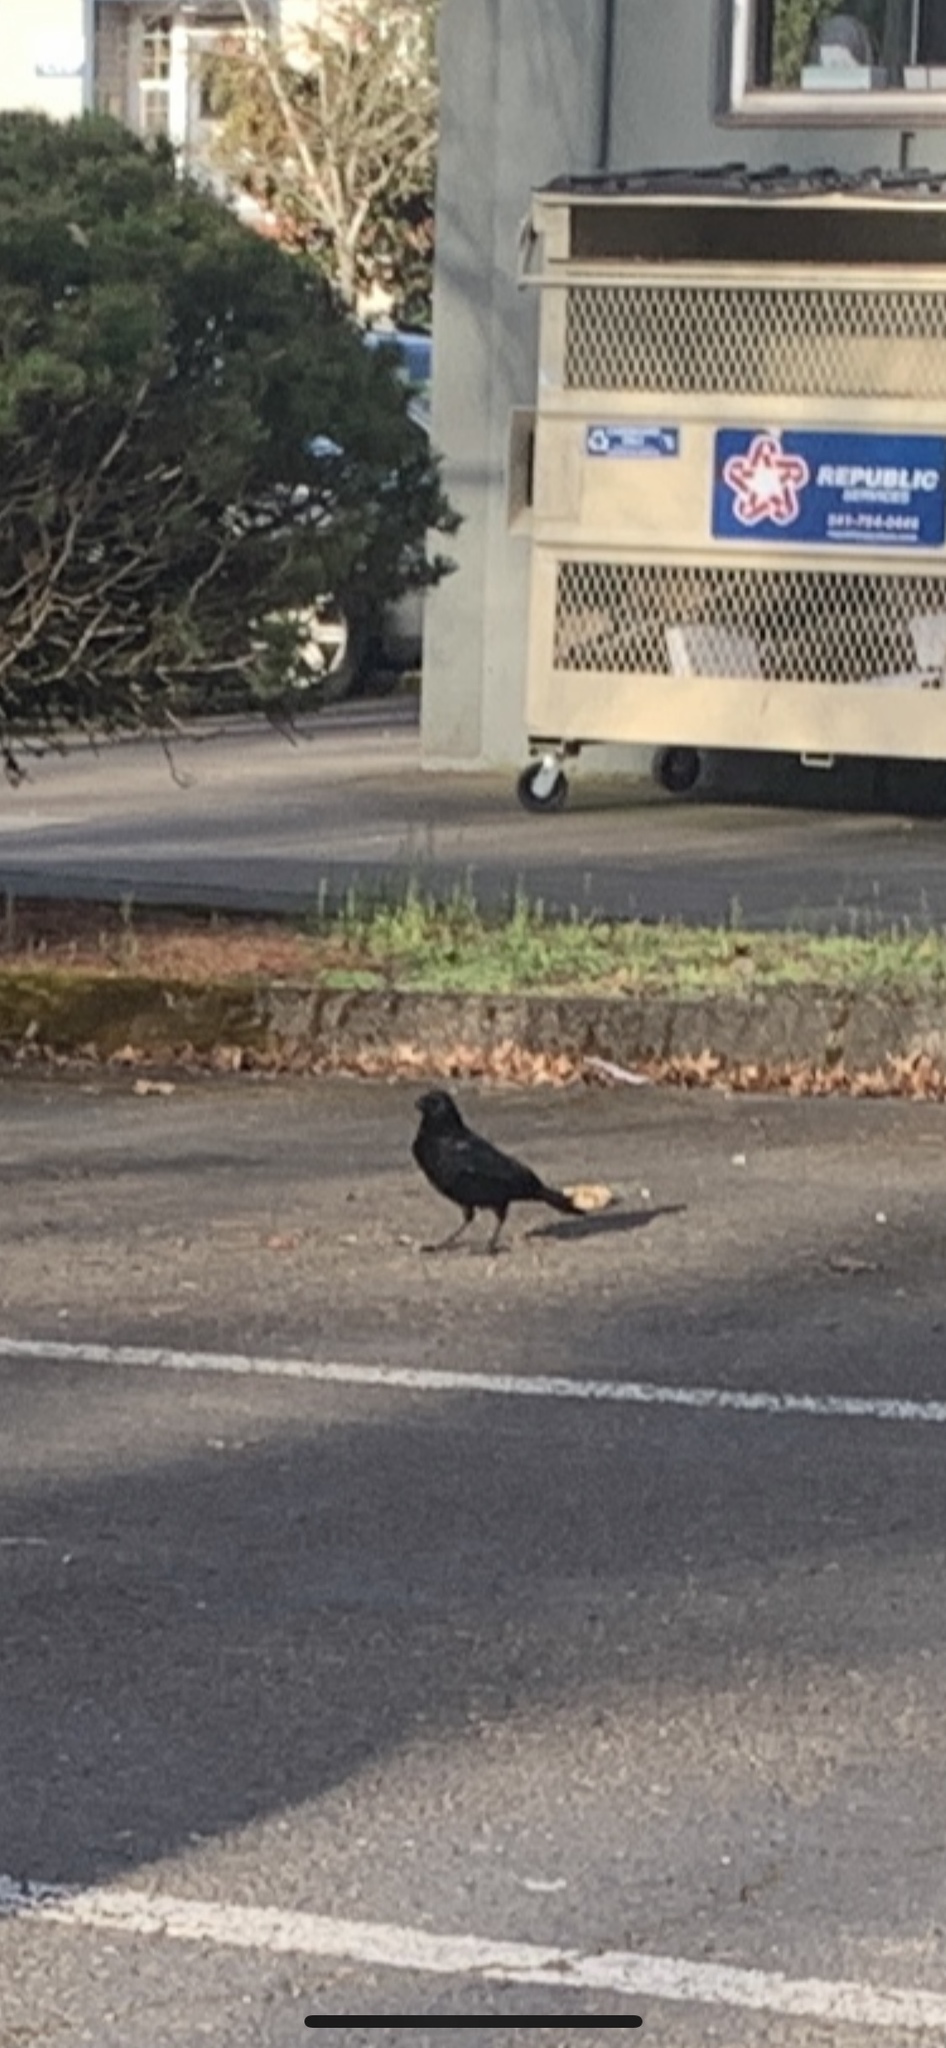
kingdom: Animalia
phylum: Chordata
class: Aves
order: Passeriformes
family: Corvidae
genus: Corvus
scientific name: Corvus brachyrhynchos
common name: American crow
